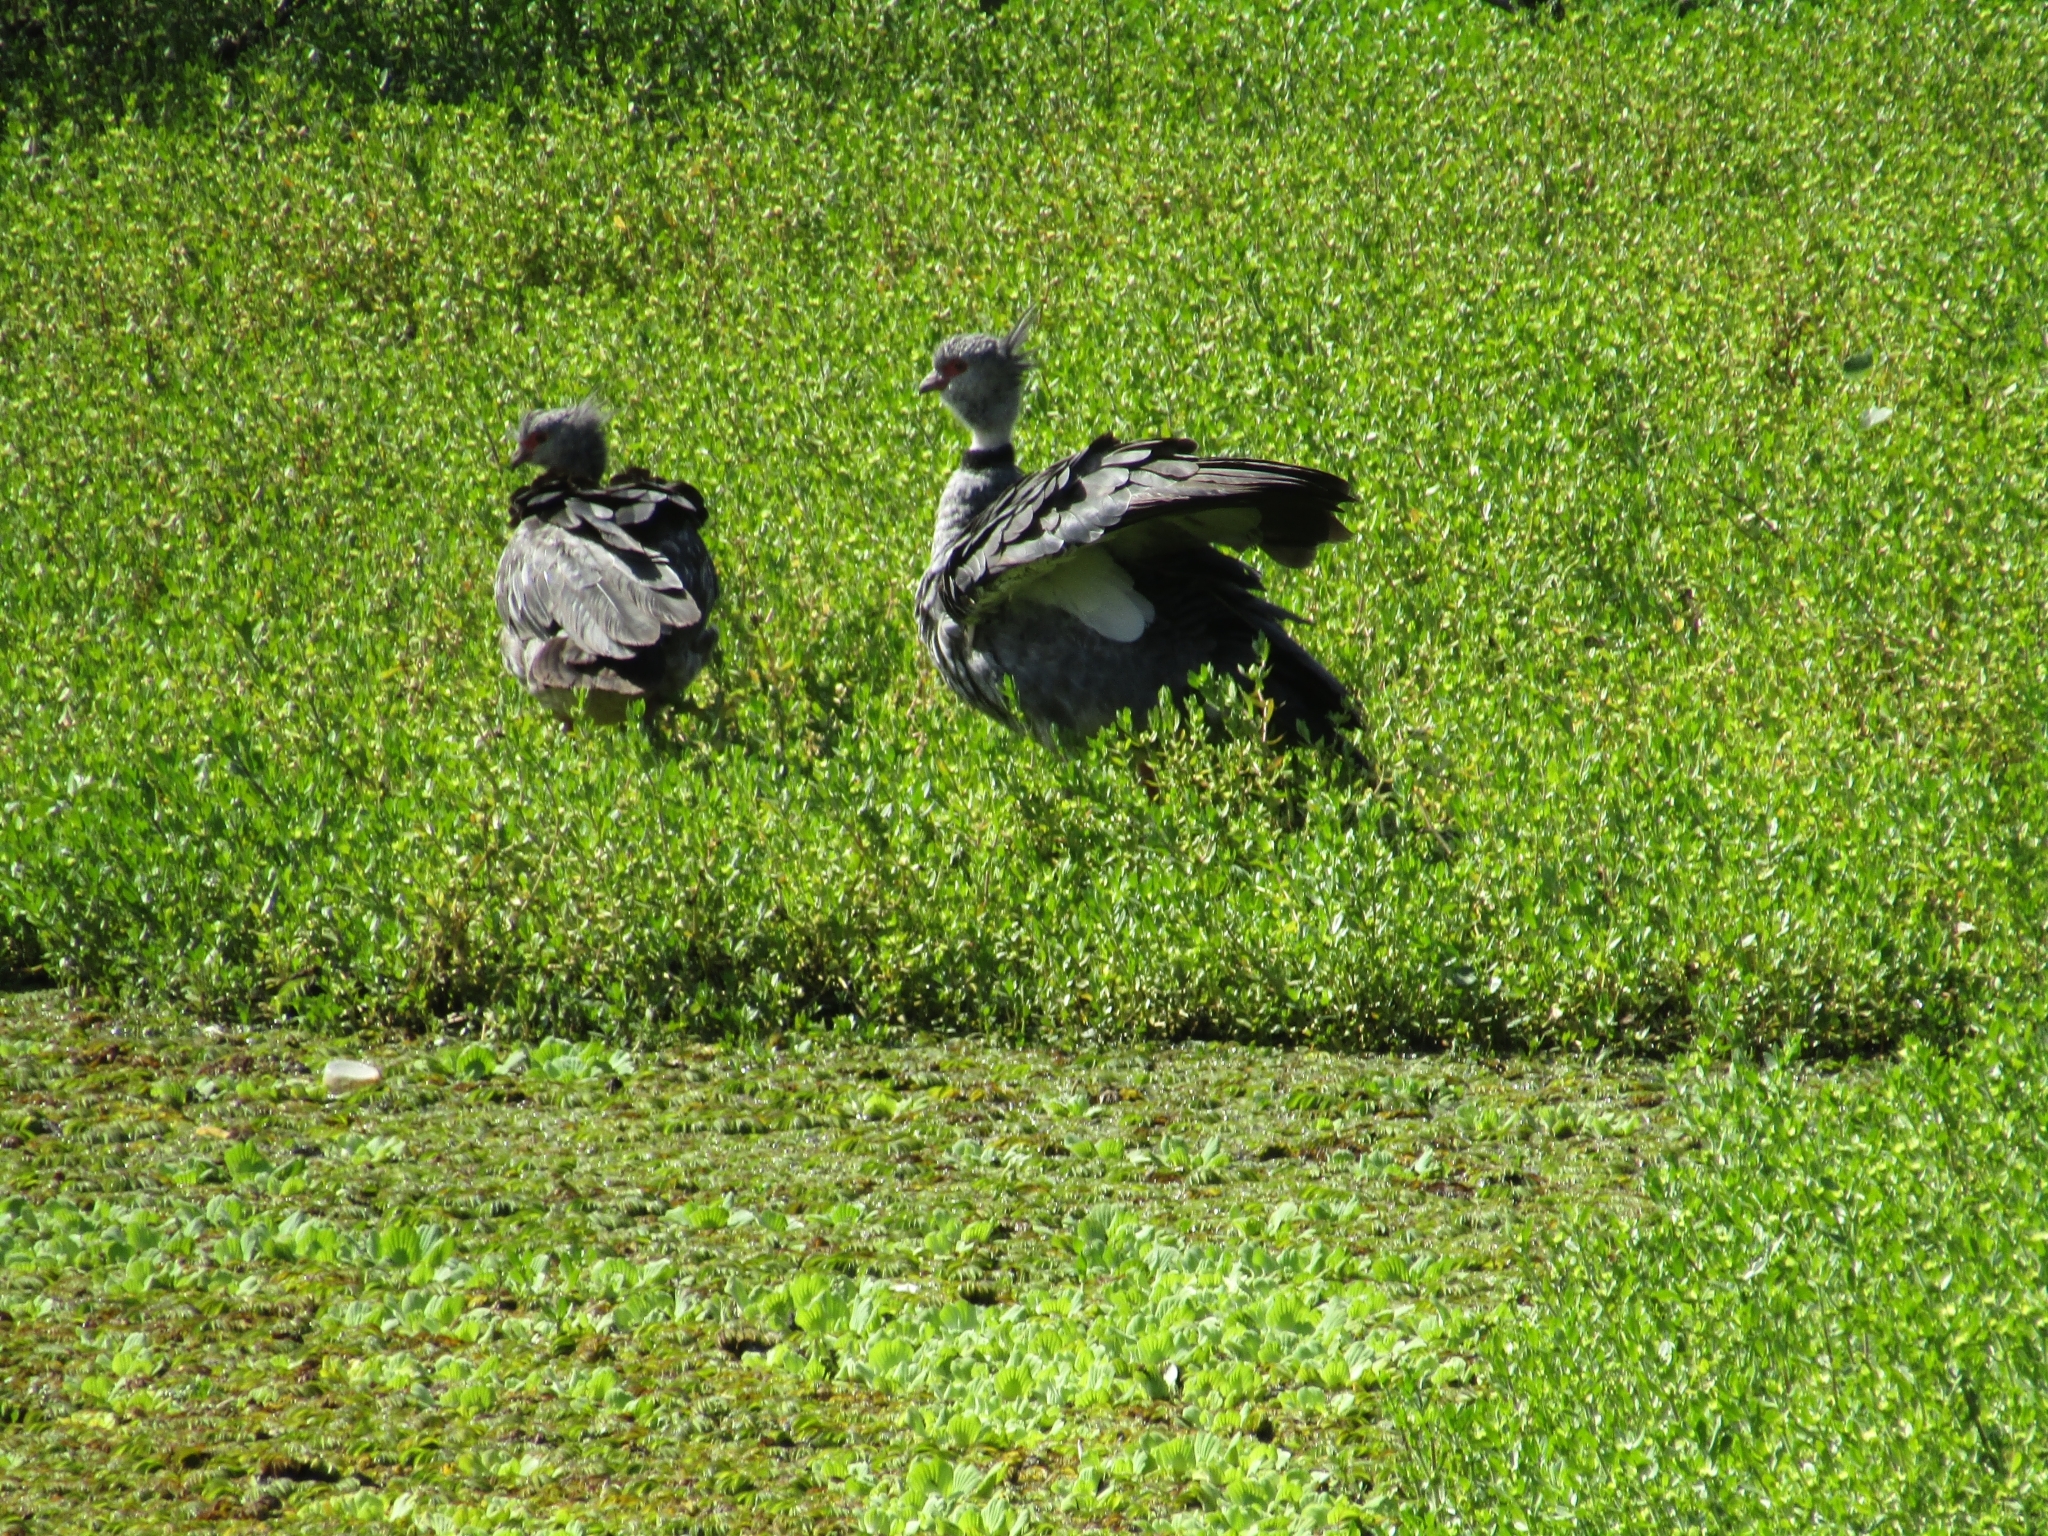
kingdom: Animalia
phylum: Chordata
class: Aves
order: Anseriformes
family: Anhimidae
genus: Chauna
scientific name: Chauna torquata
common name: Southern screamer
